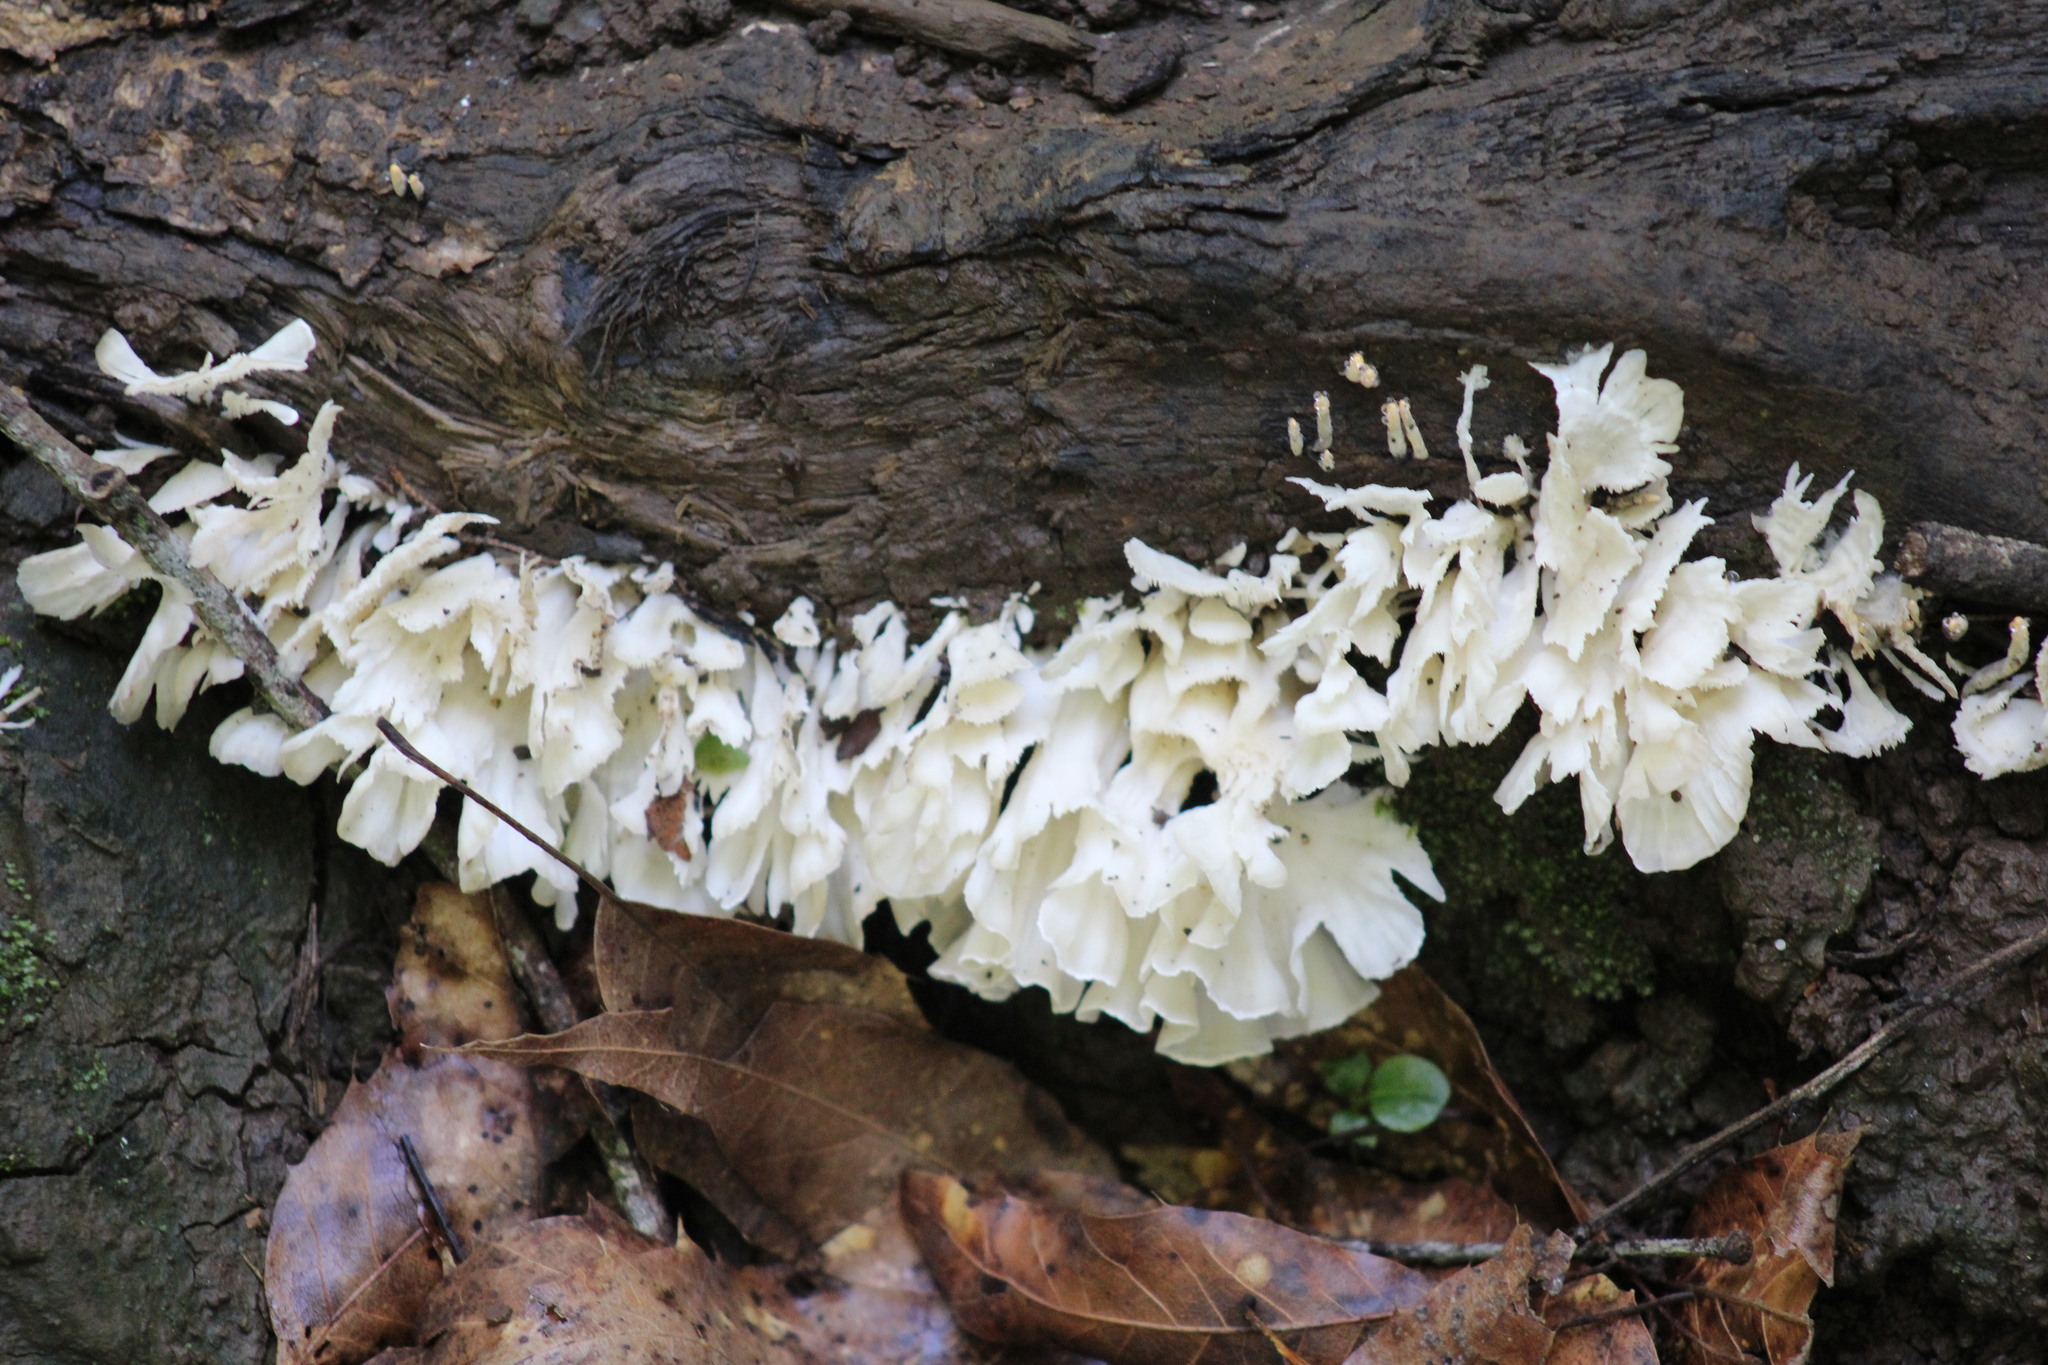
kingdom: Fungi
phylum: Basidiomycota
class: Agaricomycetes
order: Hymenochaetales
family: Rickenellaceae
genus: Cotylidia
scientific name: Cotylidia diaphana
